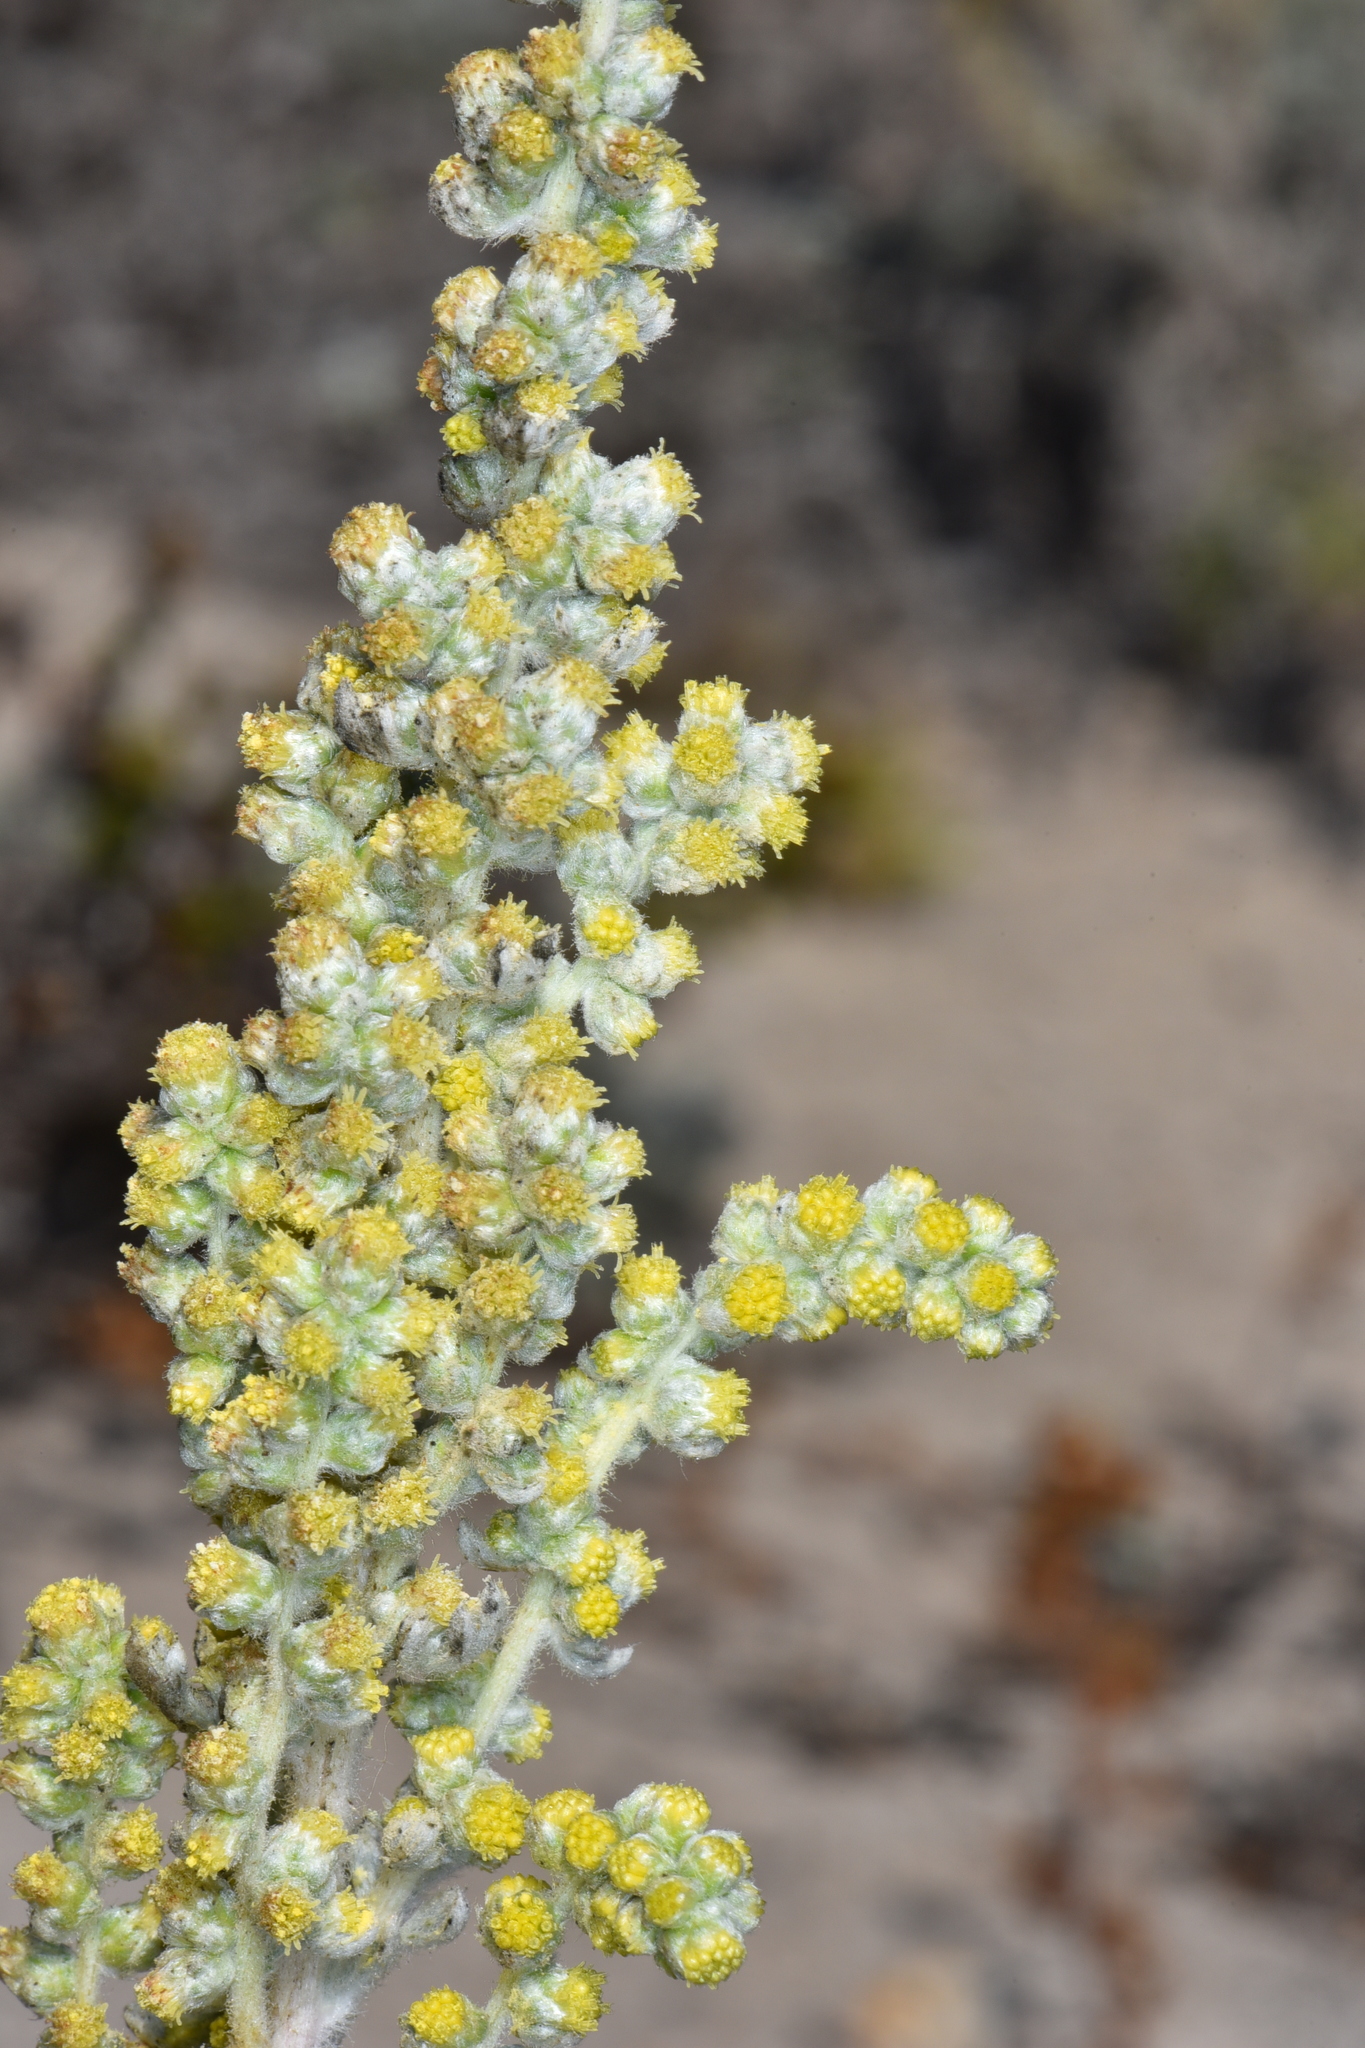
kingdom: Plantae
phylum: Tracheophyta
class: Magnoliopsida
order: Asterales
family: Asteraceae
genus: Artemisia
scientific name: Artemisia pycnocephala
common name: Coastal sagewort
